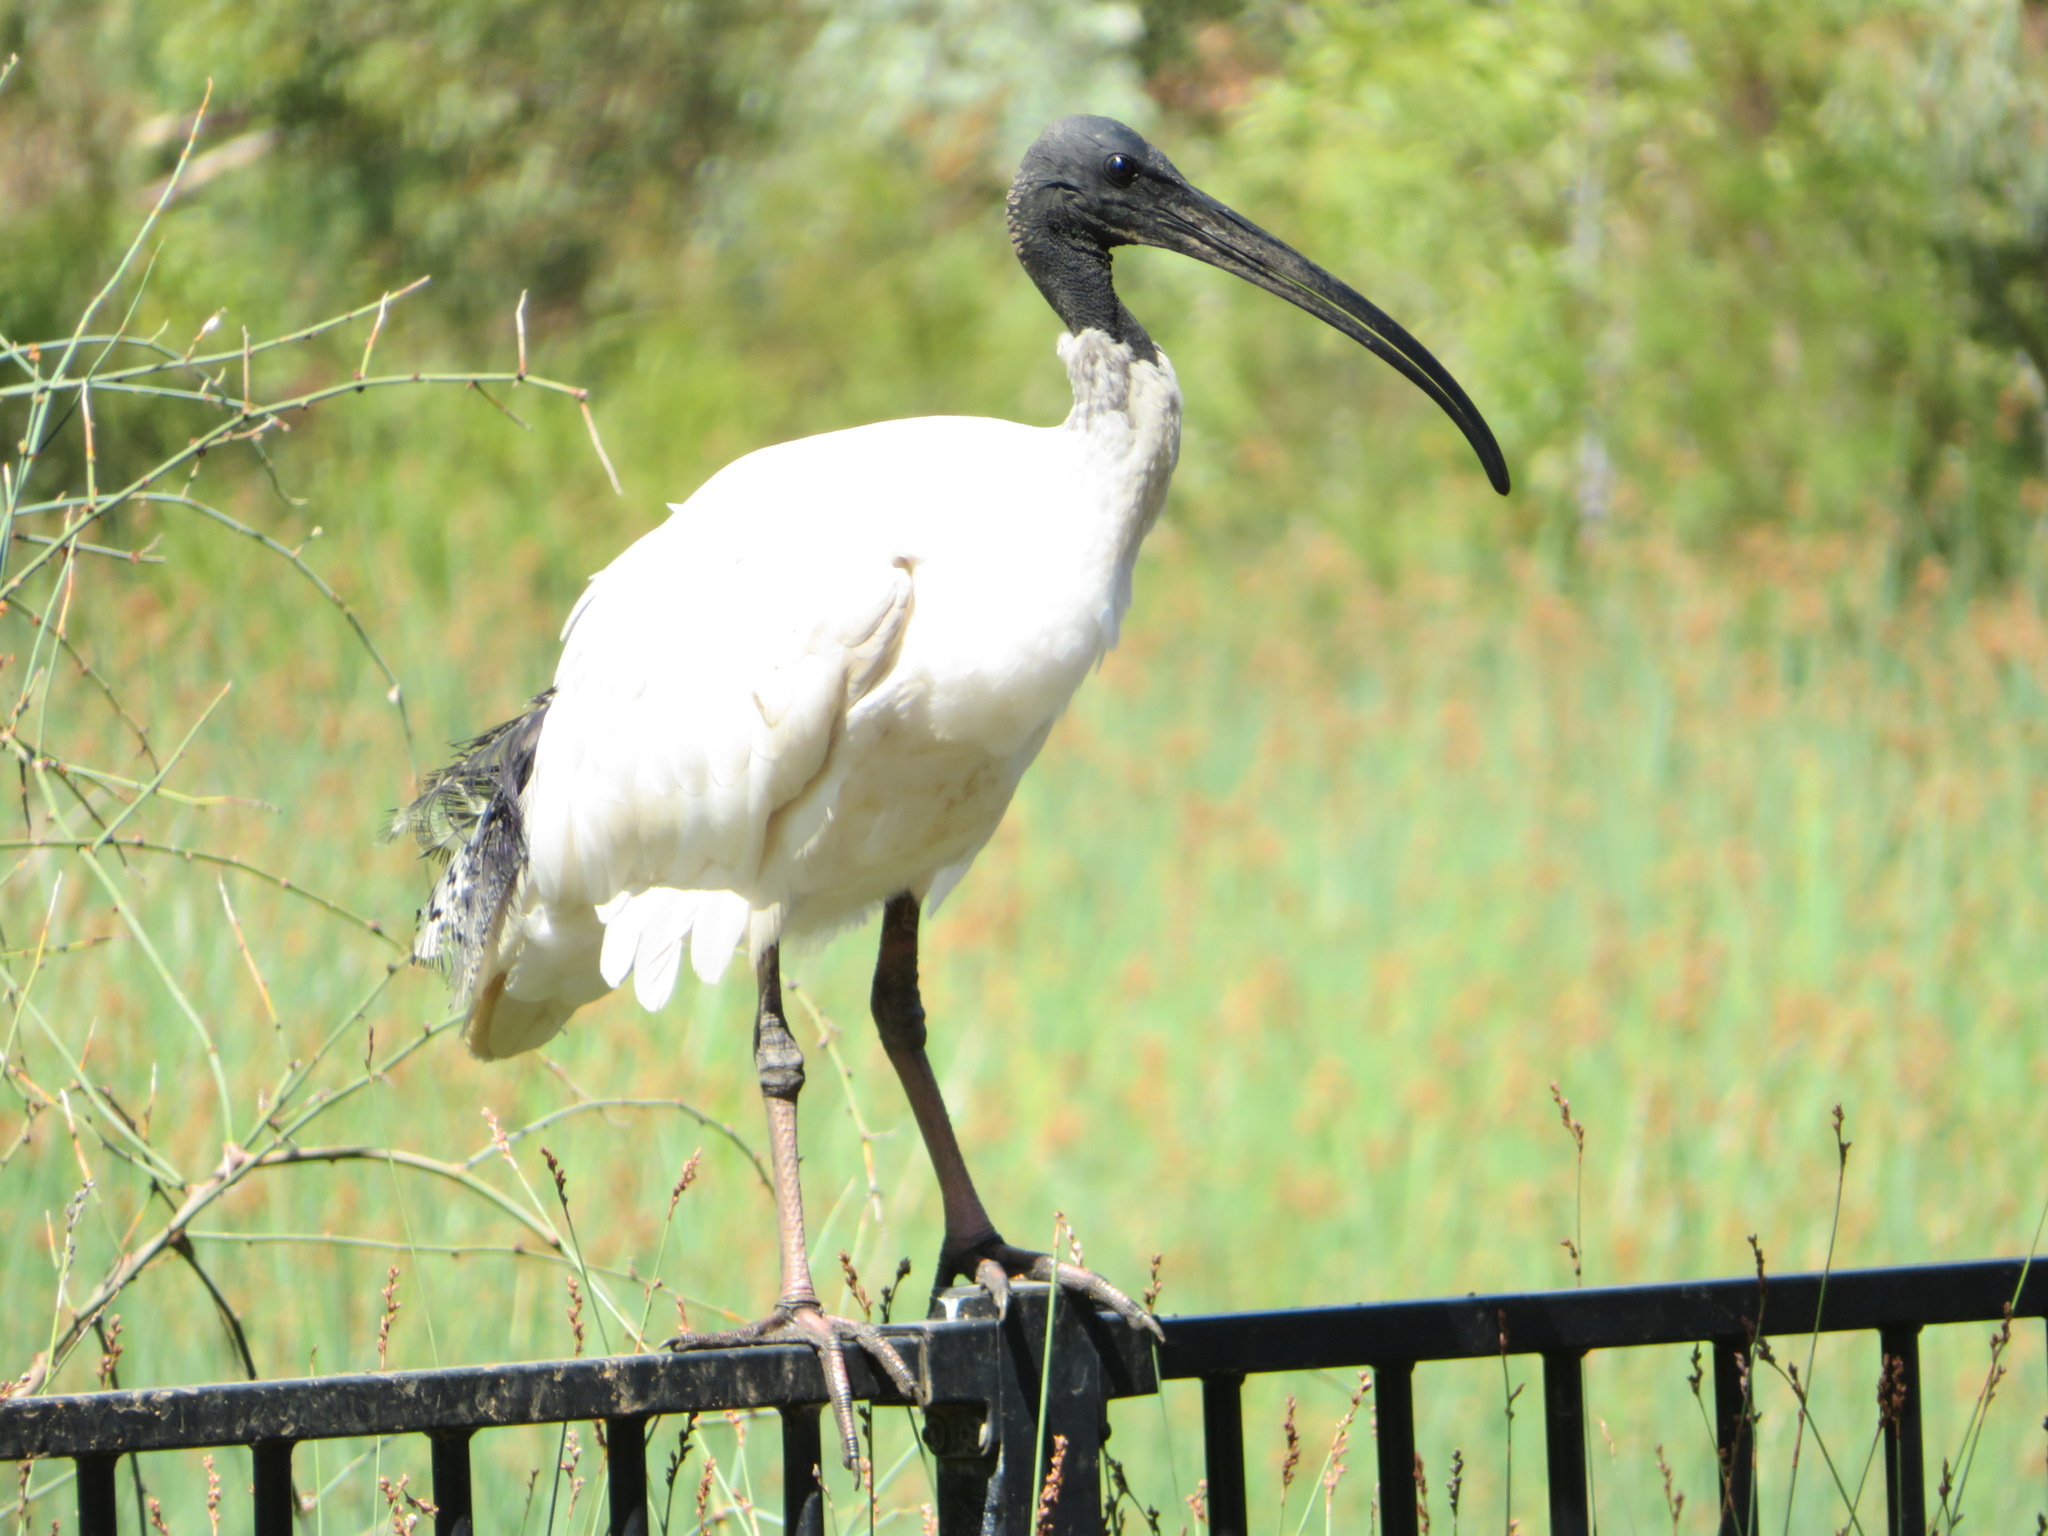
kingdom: Animalia
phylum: Chordata
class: Aves
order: Pelecaniformes
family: Threskiornithidae
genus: Threskiornis
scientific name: Threskiornis molucca
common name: Australian white ibis
